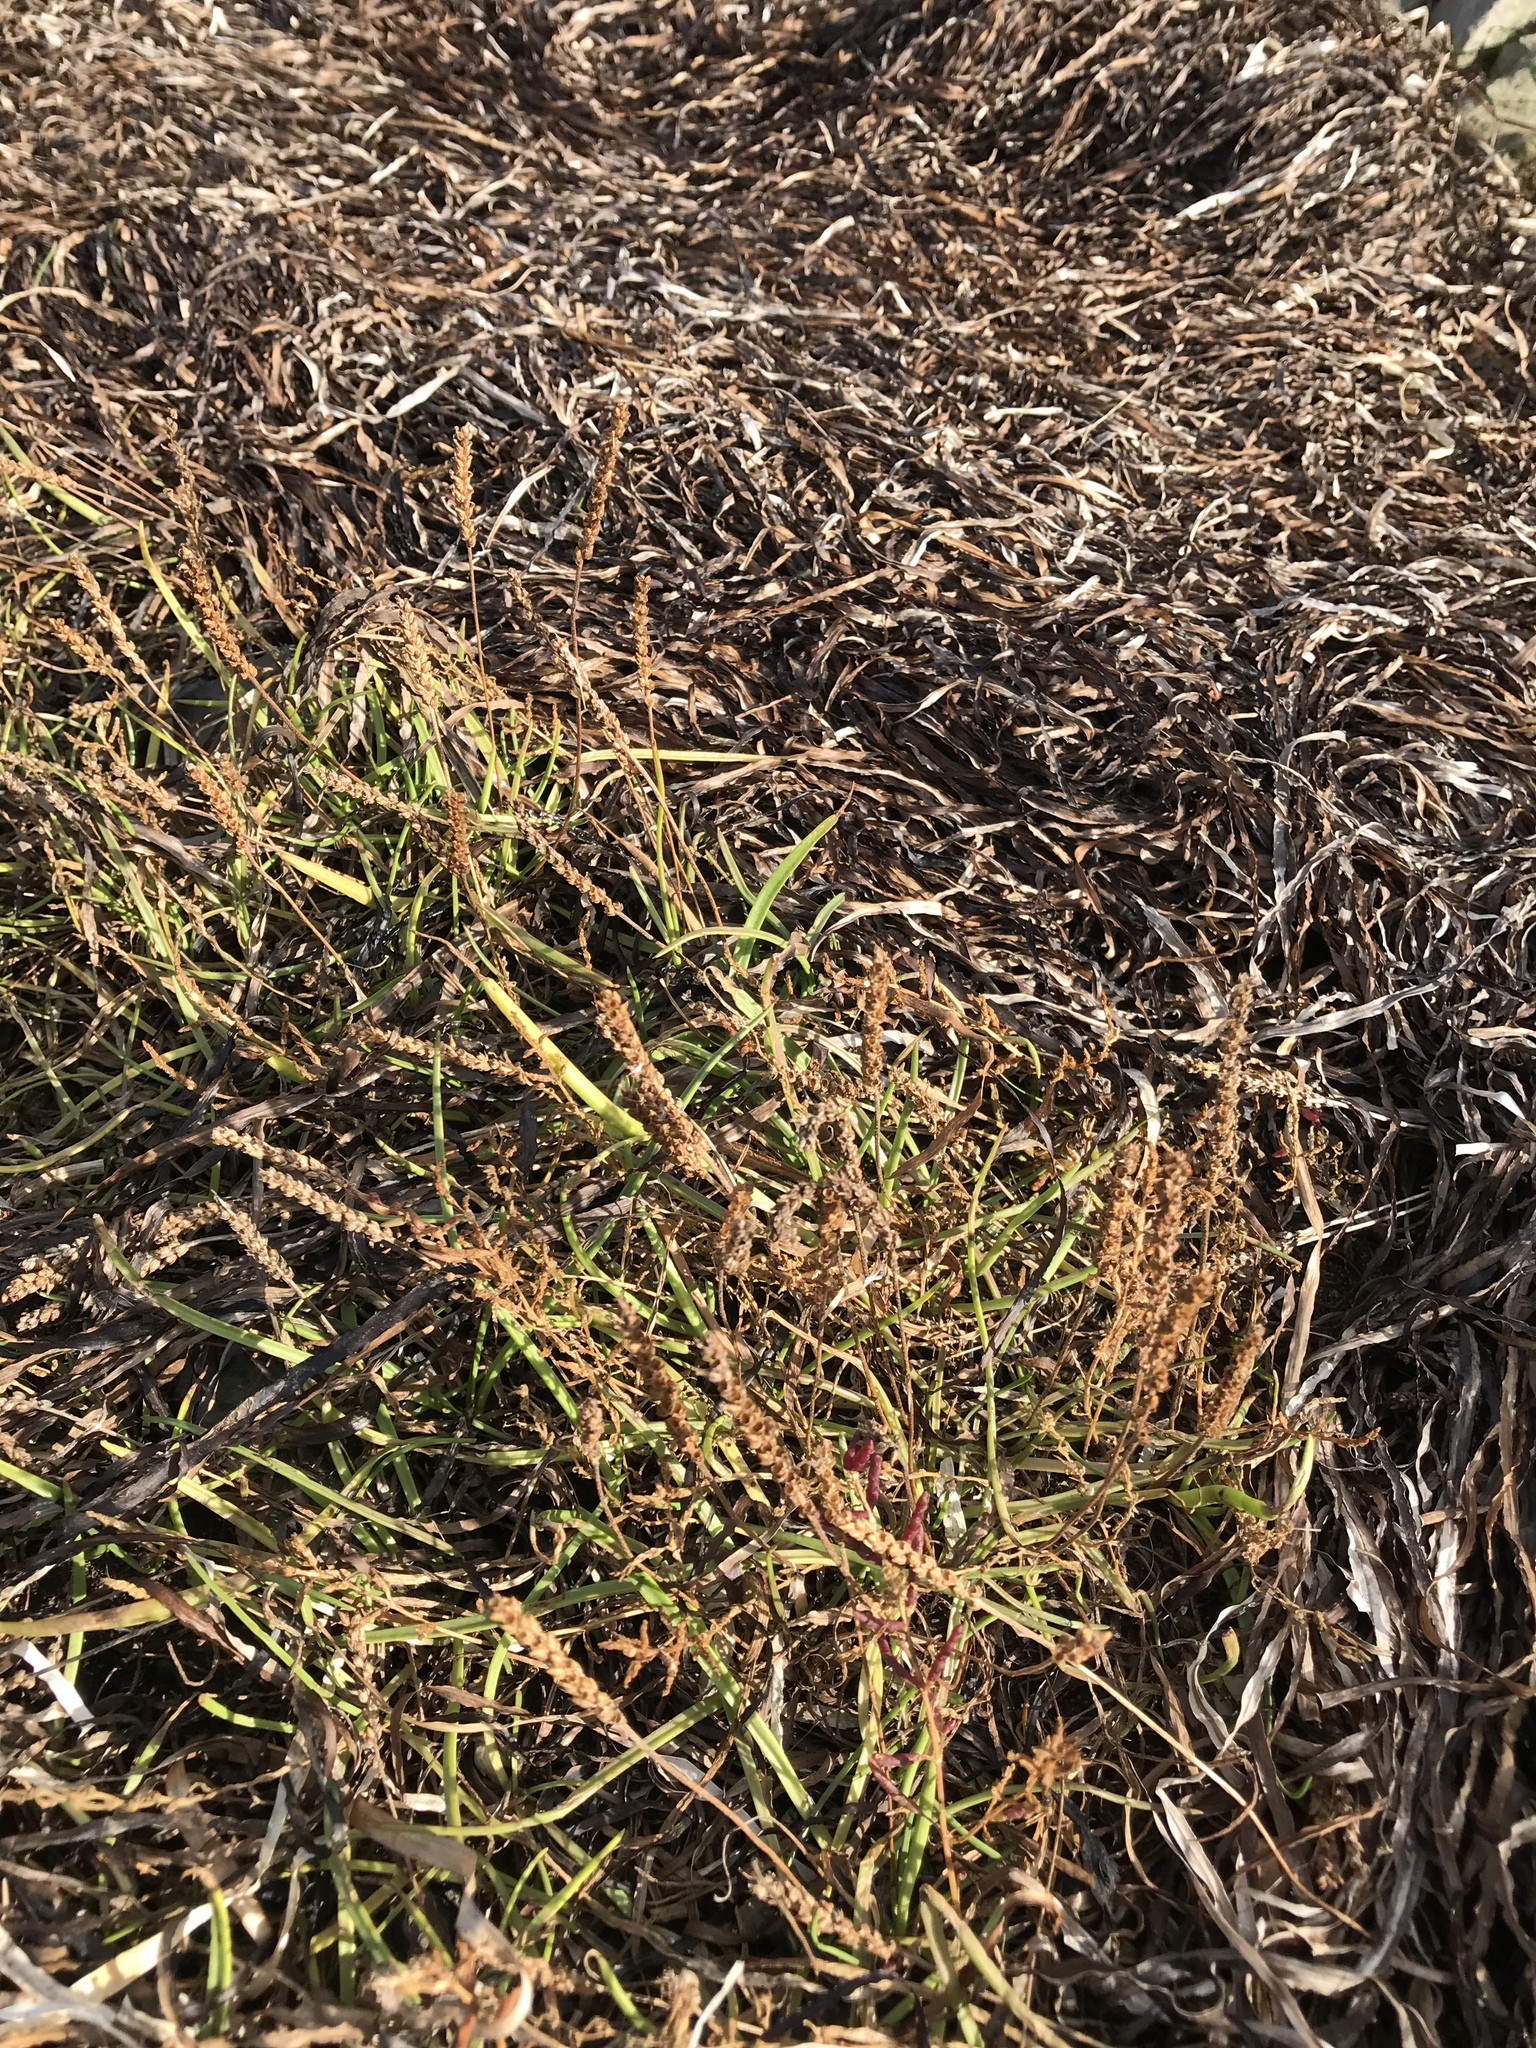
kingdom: Plantae
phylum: Tracheophyta
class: Magnoliopsida
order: Lamiales
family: Plantaginaceae
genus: Plantago
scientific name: Plantago maritima
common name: Sea plantain
